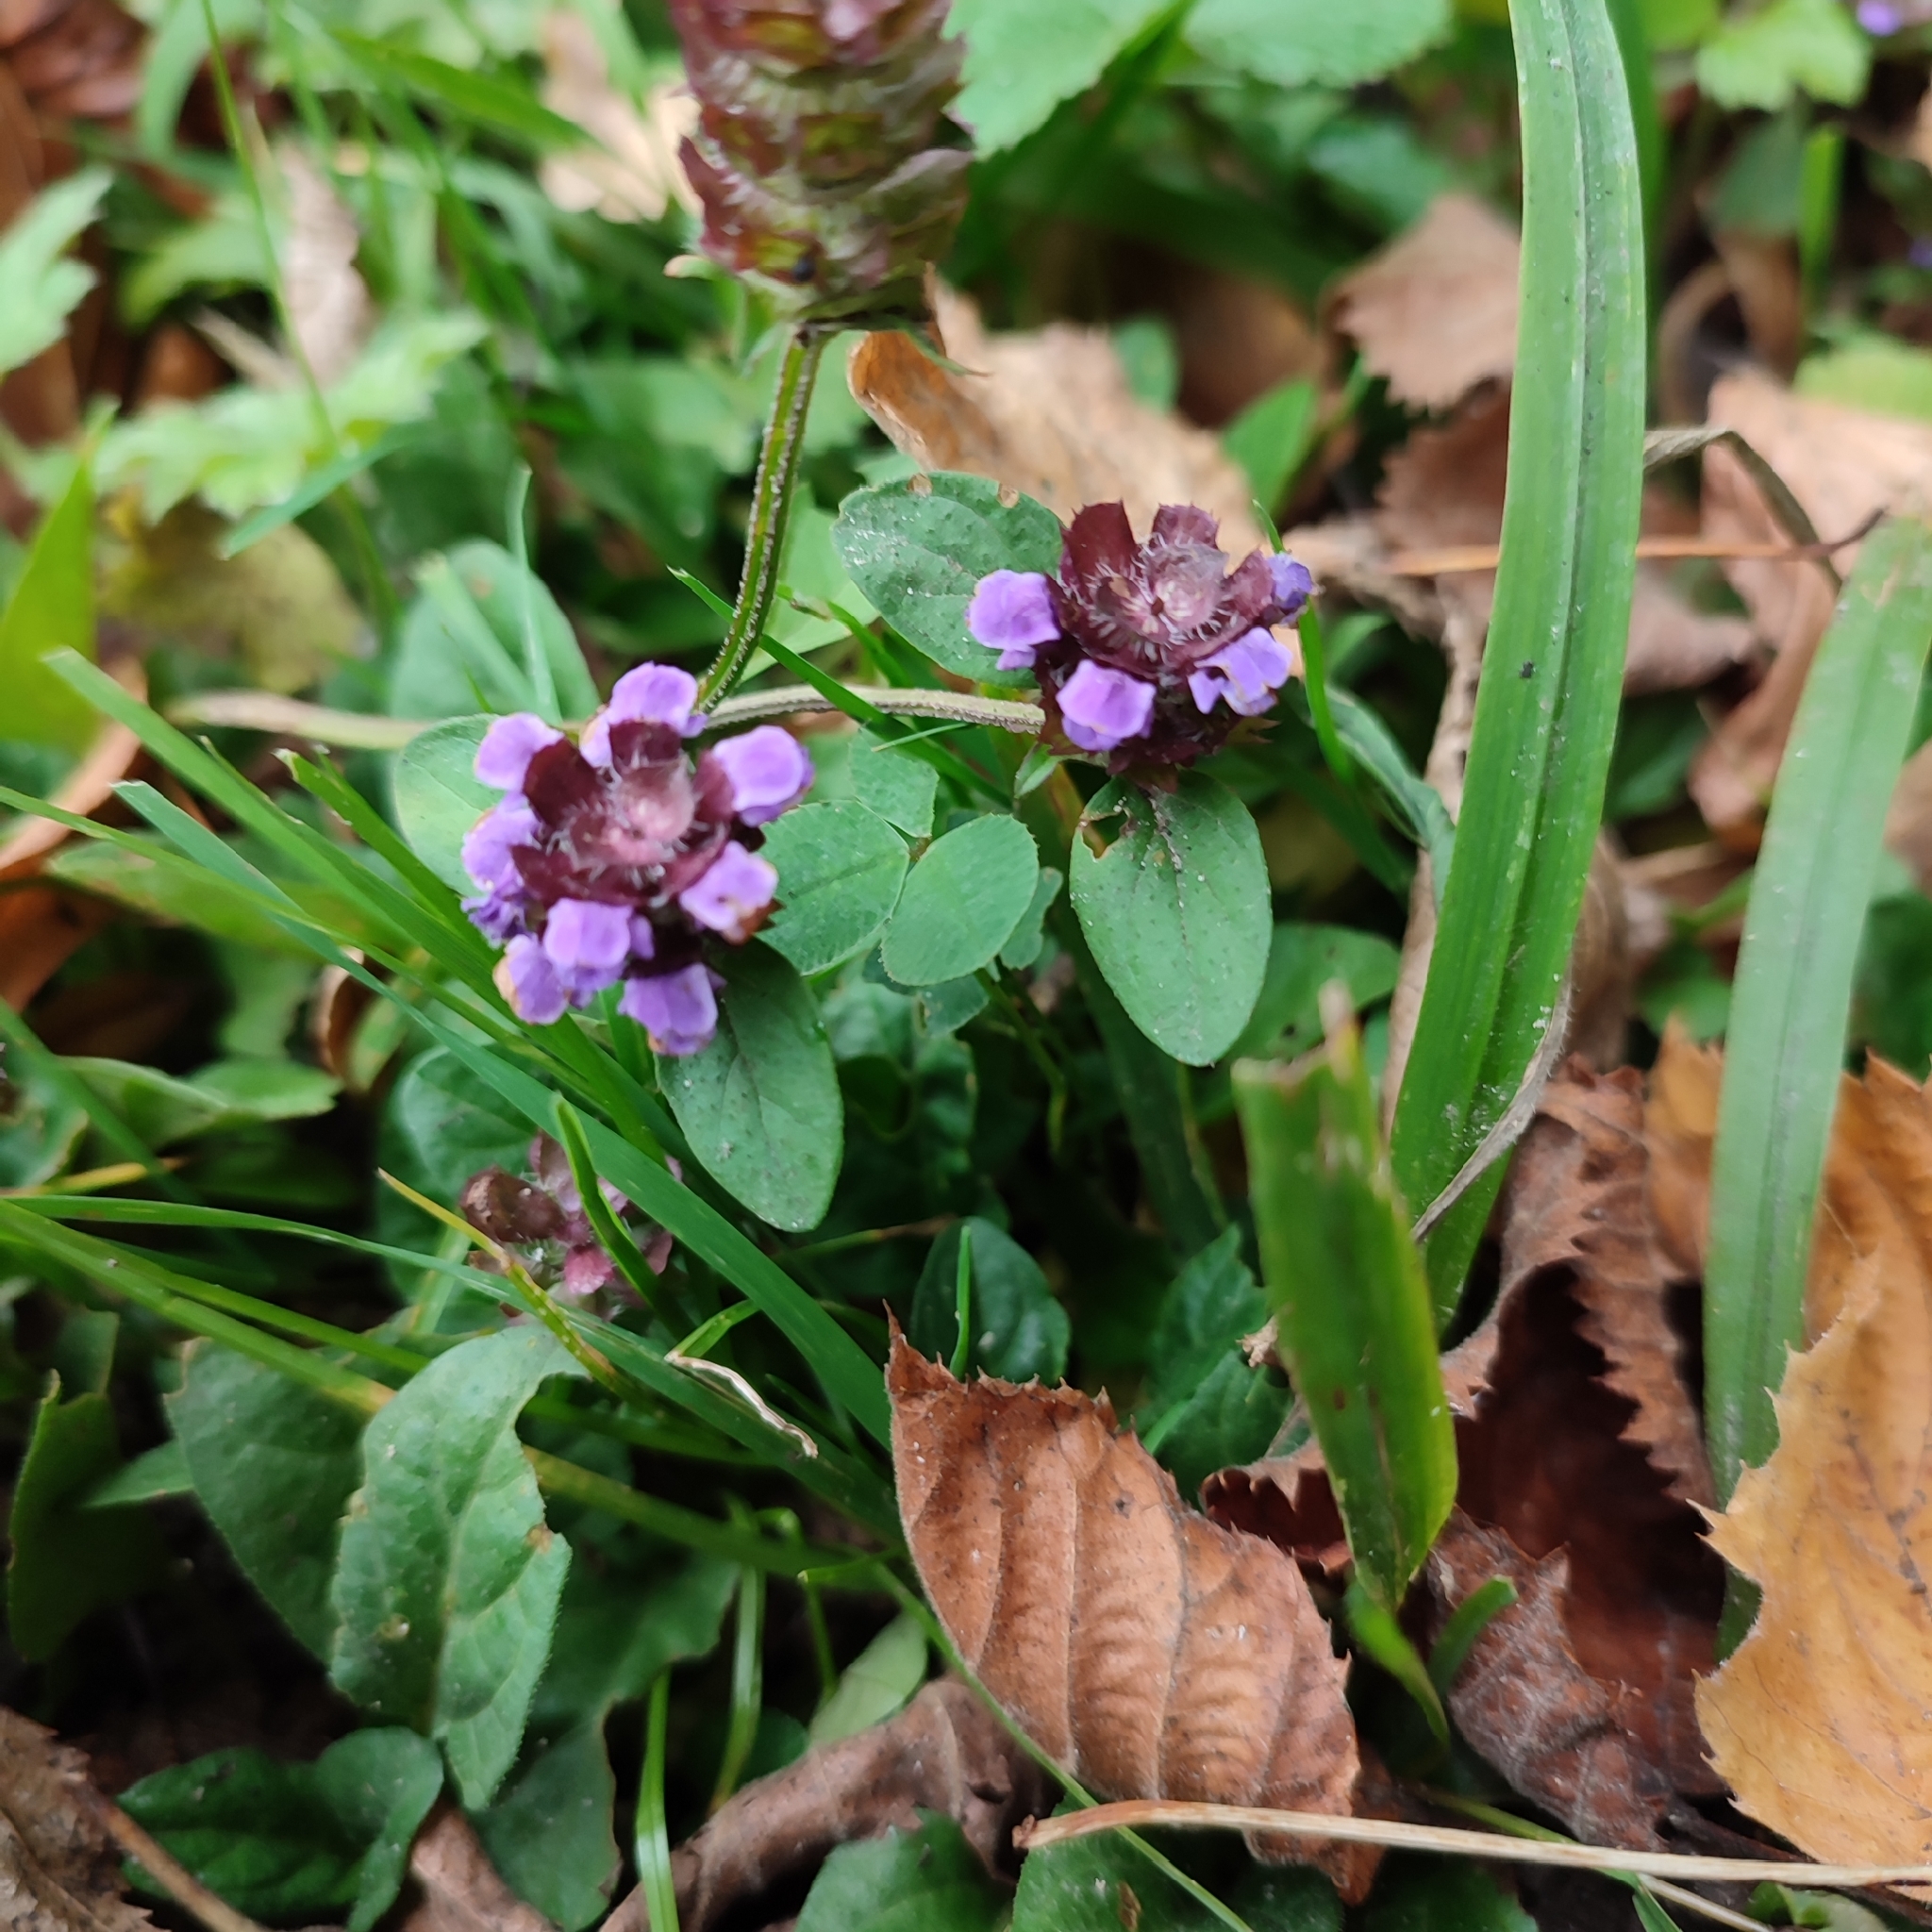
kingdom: Plantae
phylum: Tracheophyta
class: Magnoliopsida
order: Lamiales
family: Lamiaceae
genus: Prunella
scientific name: Prunella vulgaris
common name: Heal-all
